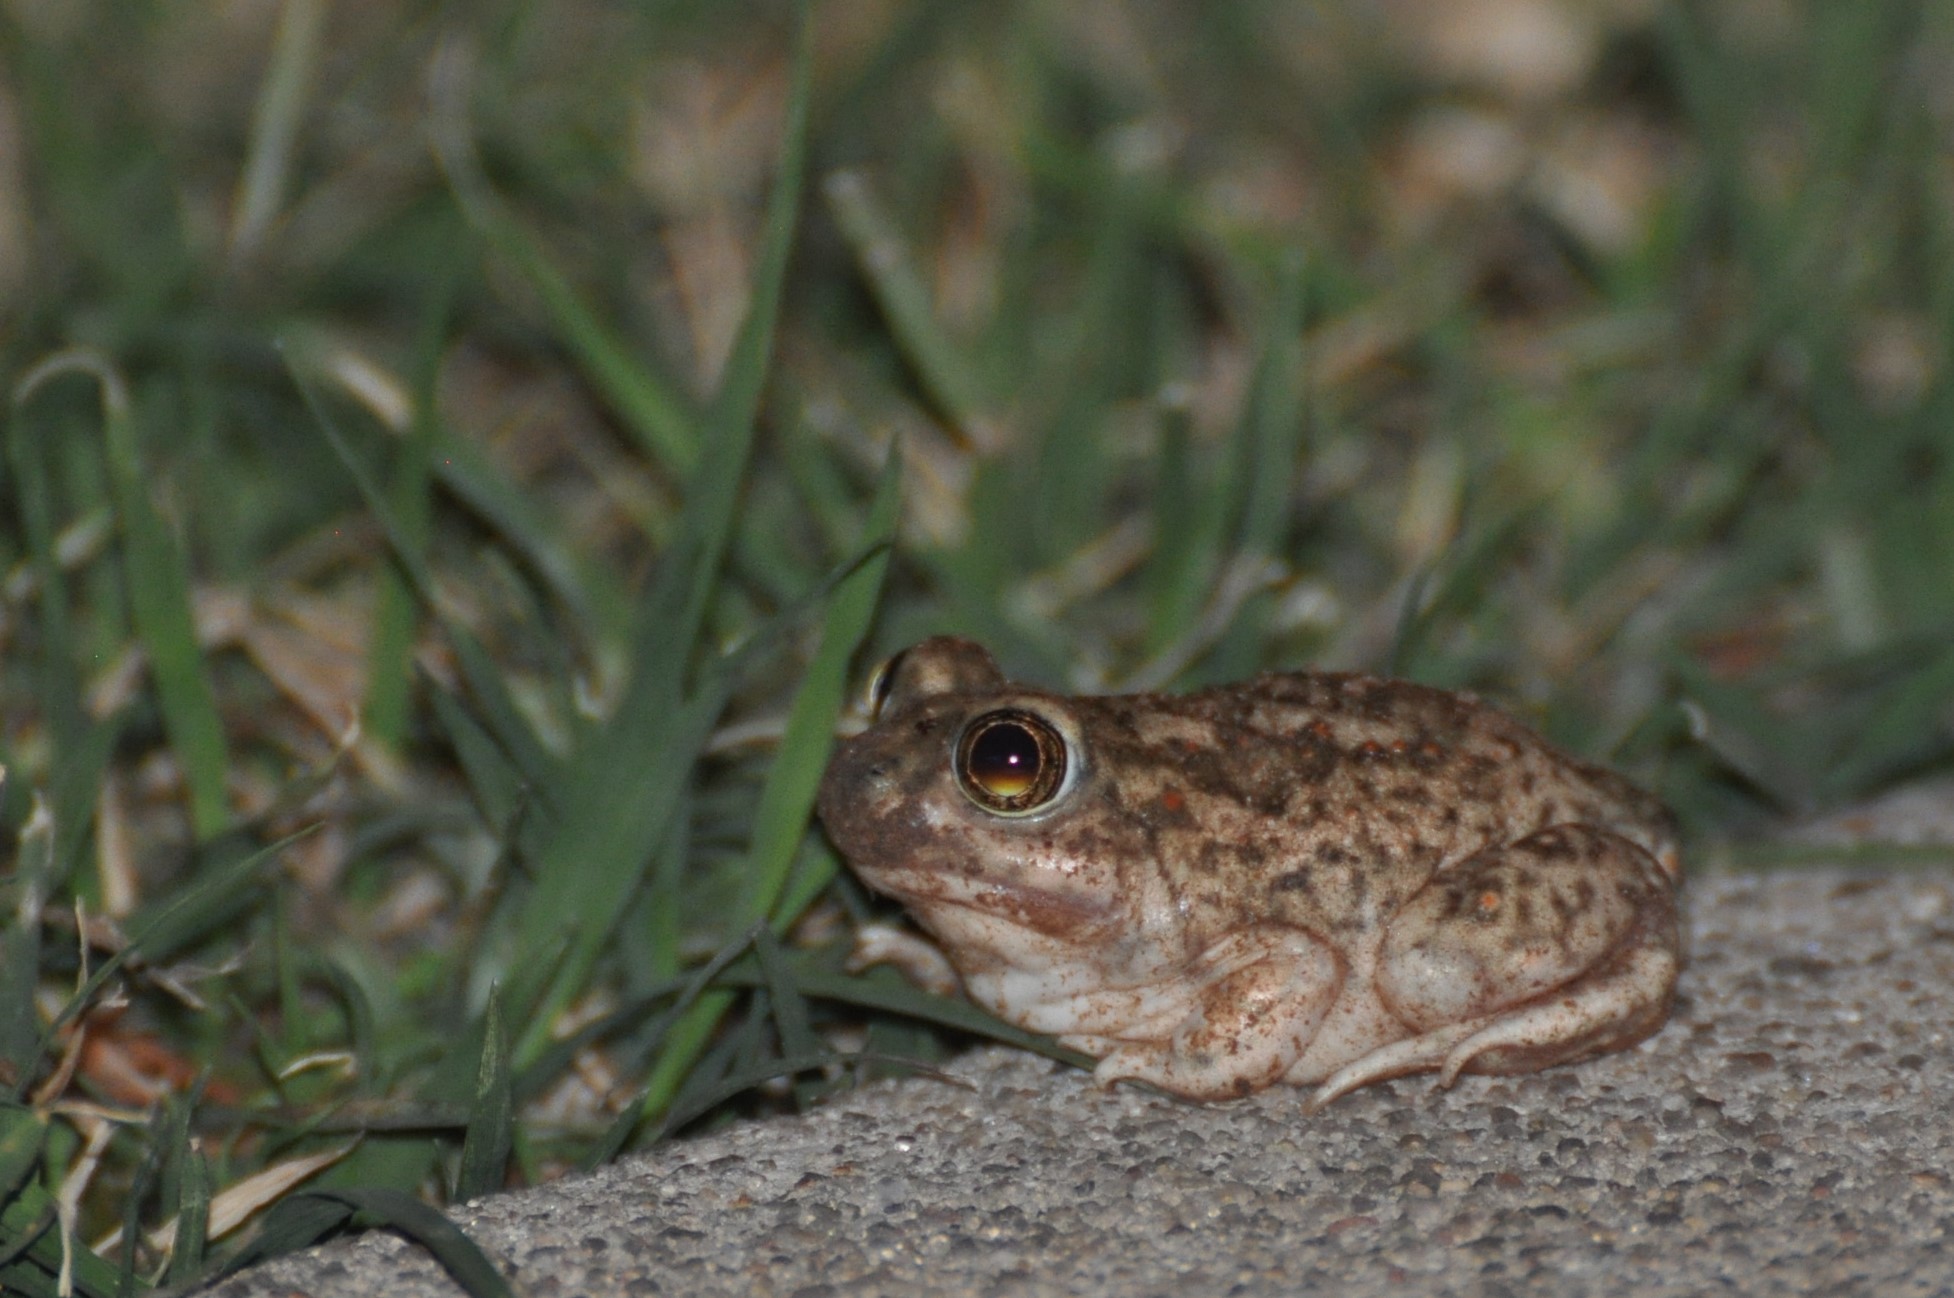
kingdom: Animalia
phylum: Chordata
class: Amphibia
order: Anura
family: Scaphiopodidae
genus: Spea
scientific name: Spea bombifrons
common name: Plains spadefoot
